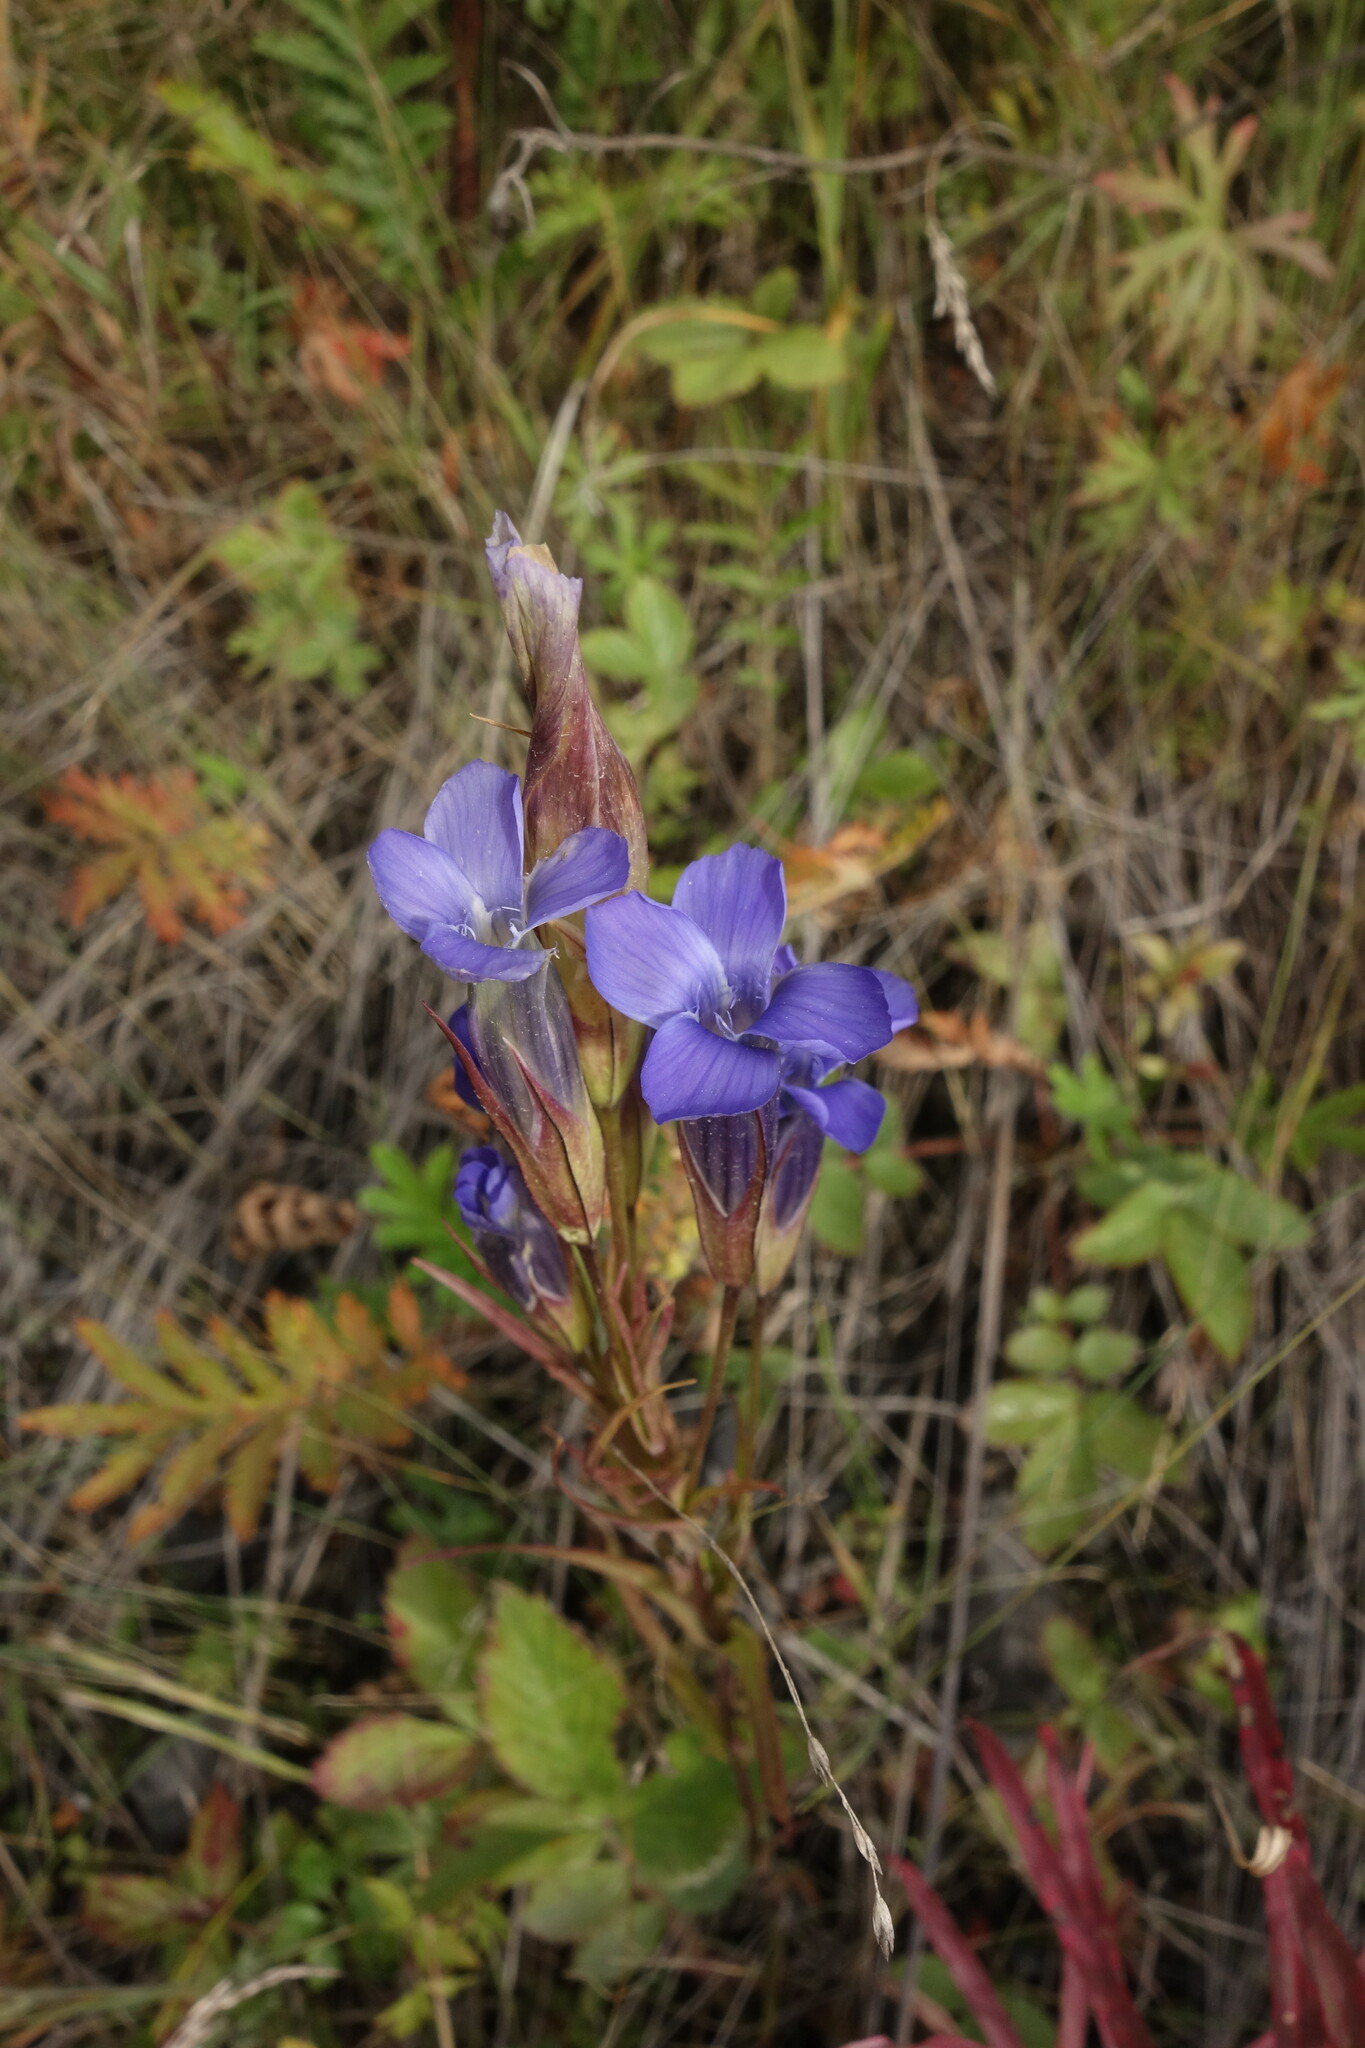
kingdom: Plantae
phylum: Tracheophyta
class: Magnoliopsida
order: Gentianales
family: Gentianaceae
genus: Gentianopsis
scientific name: Gentianopsis barbata
